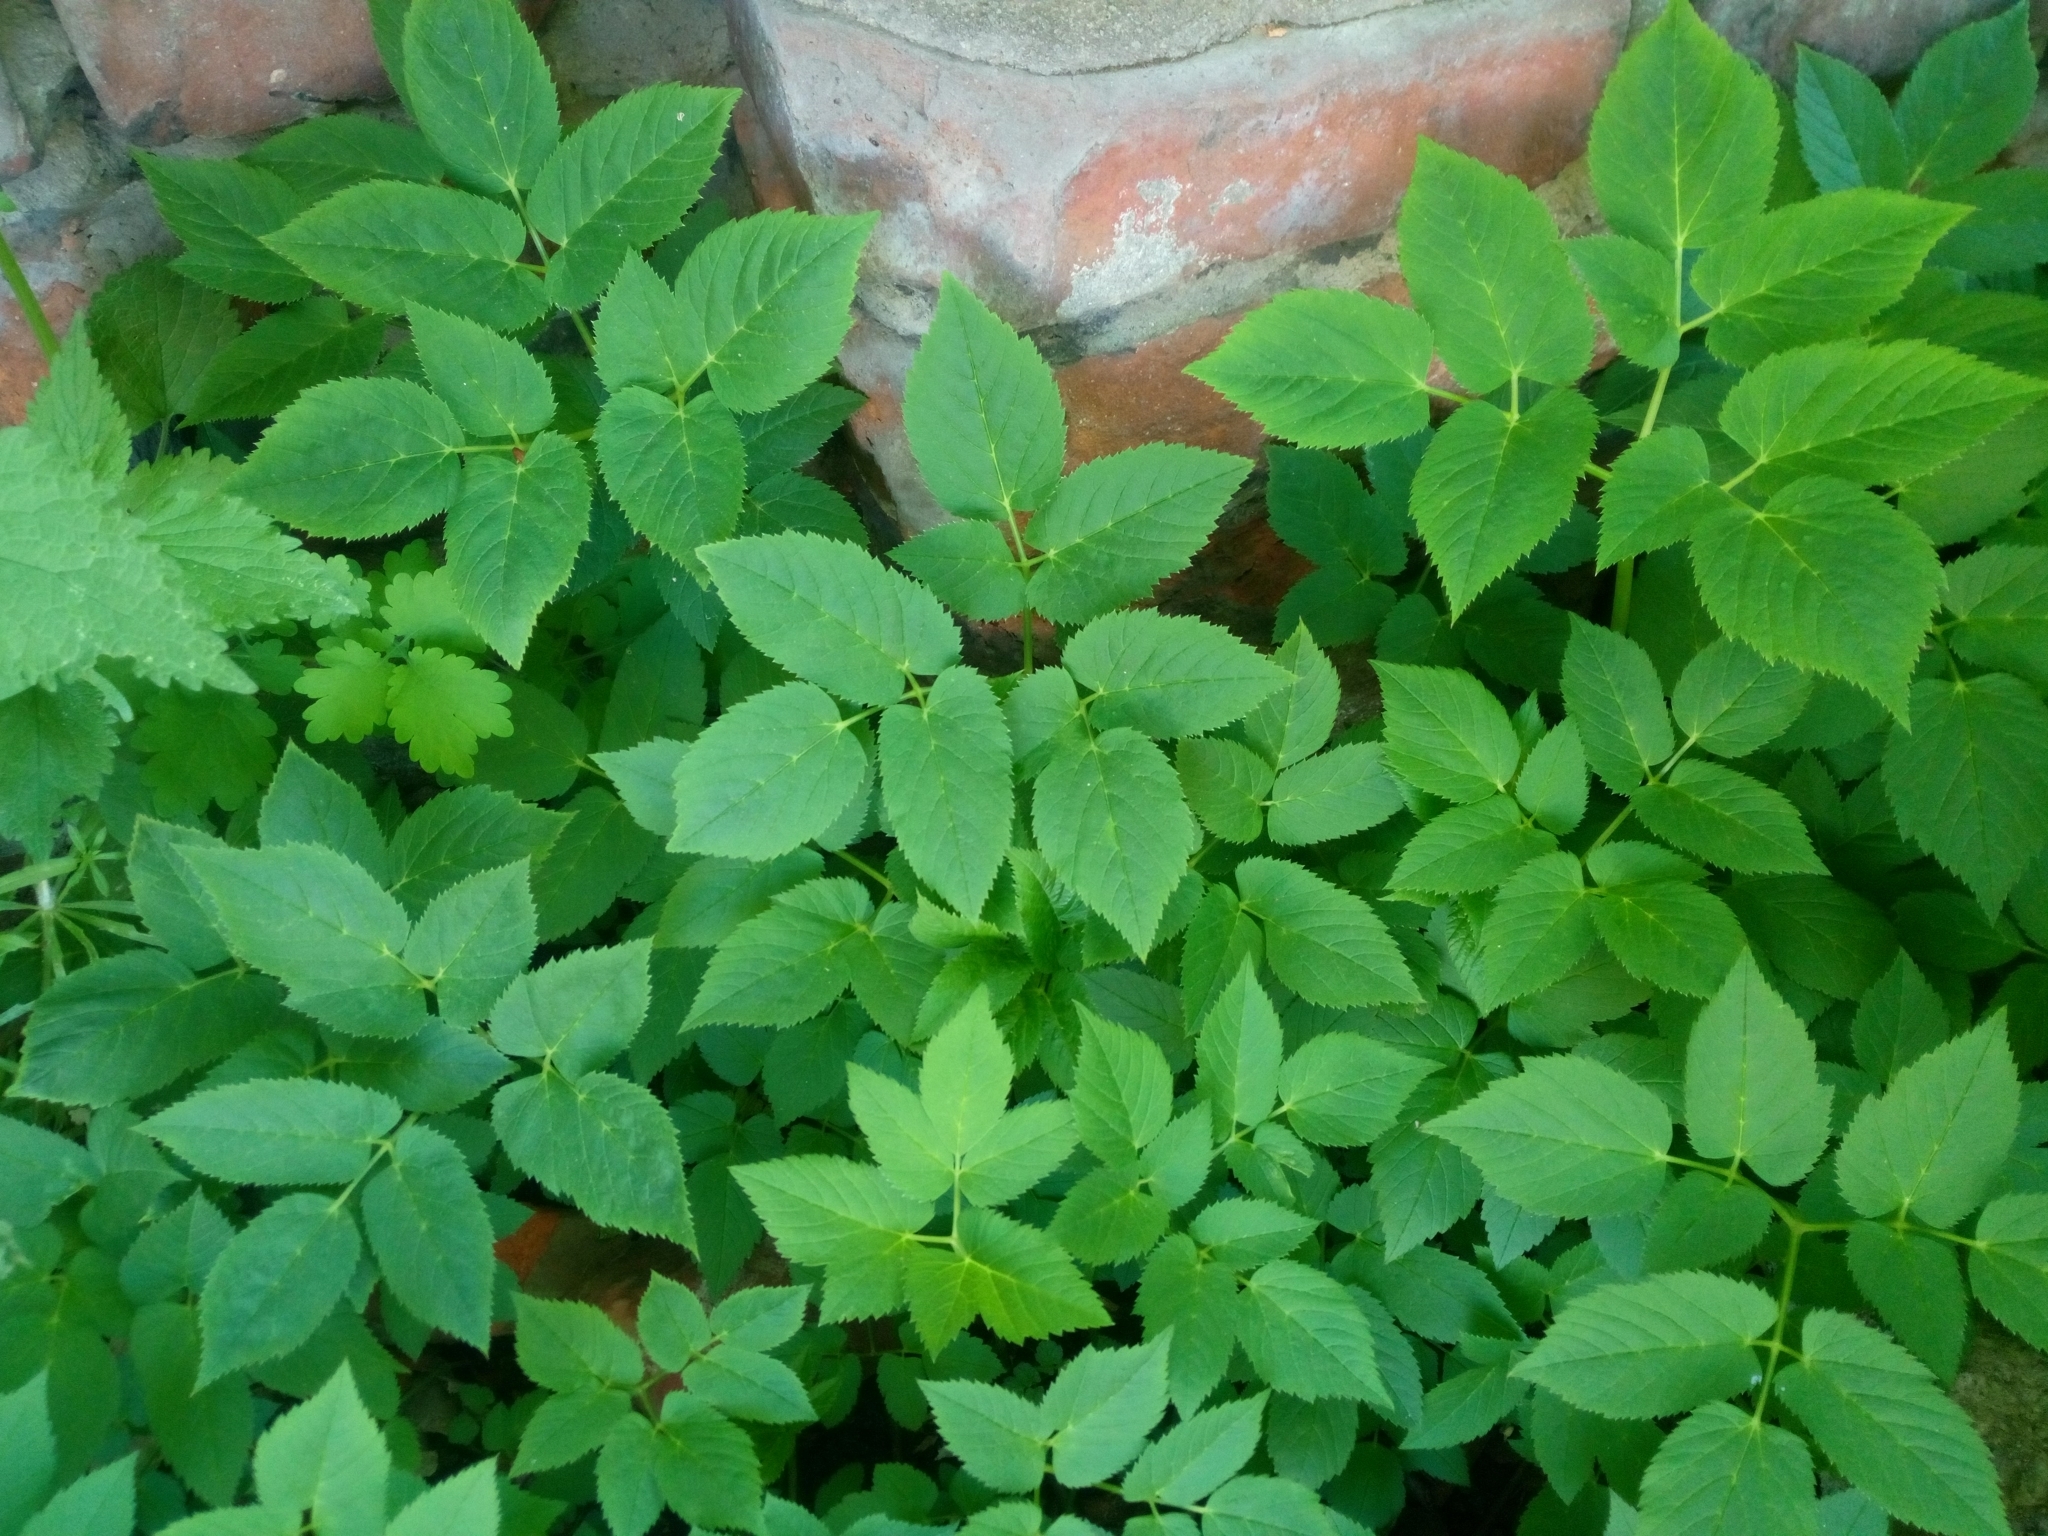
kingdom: Plantae
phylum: Tracheophyta
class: Magnoliopsida
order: Apiales
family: Apiaceae
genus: Aegopodium
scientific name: Aegopodium podagraria
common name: Ground-elder
